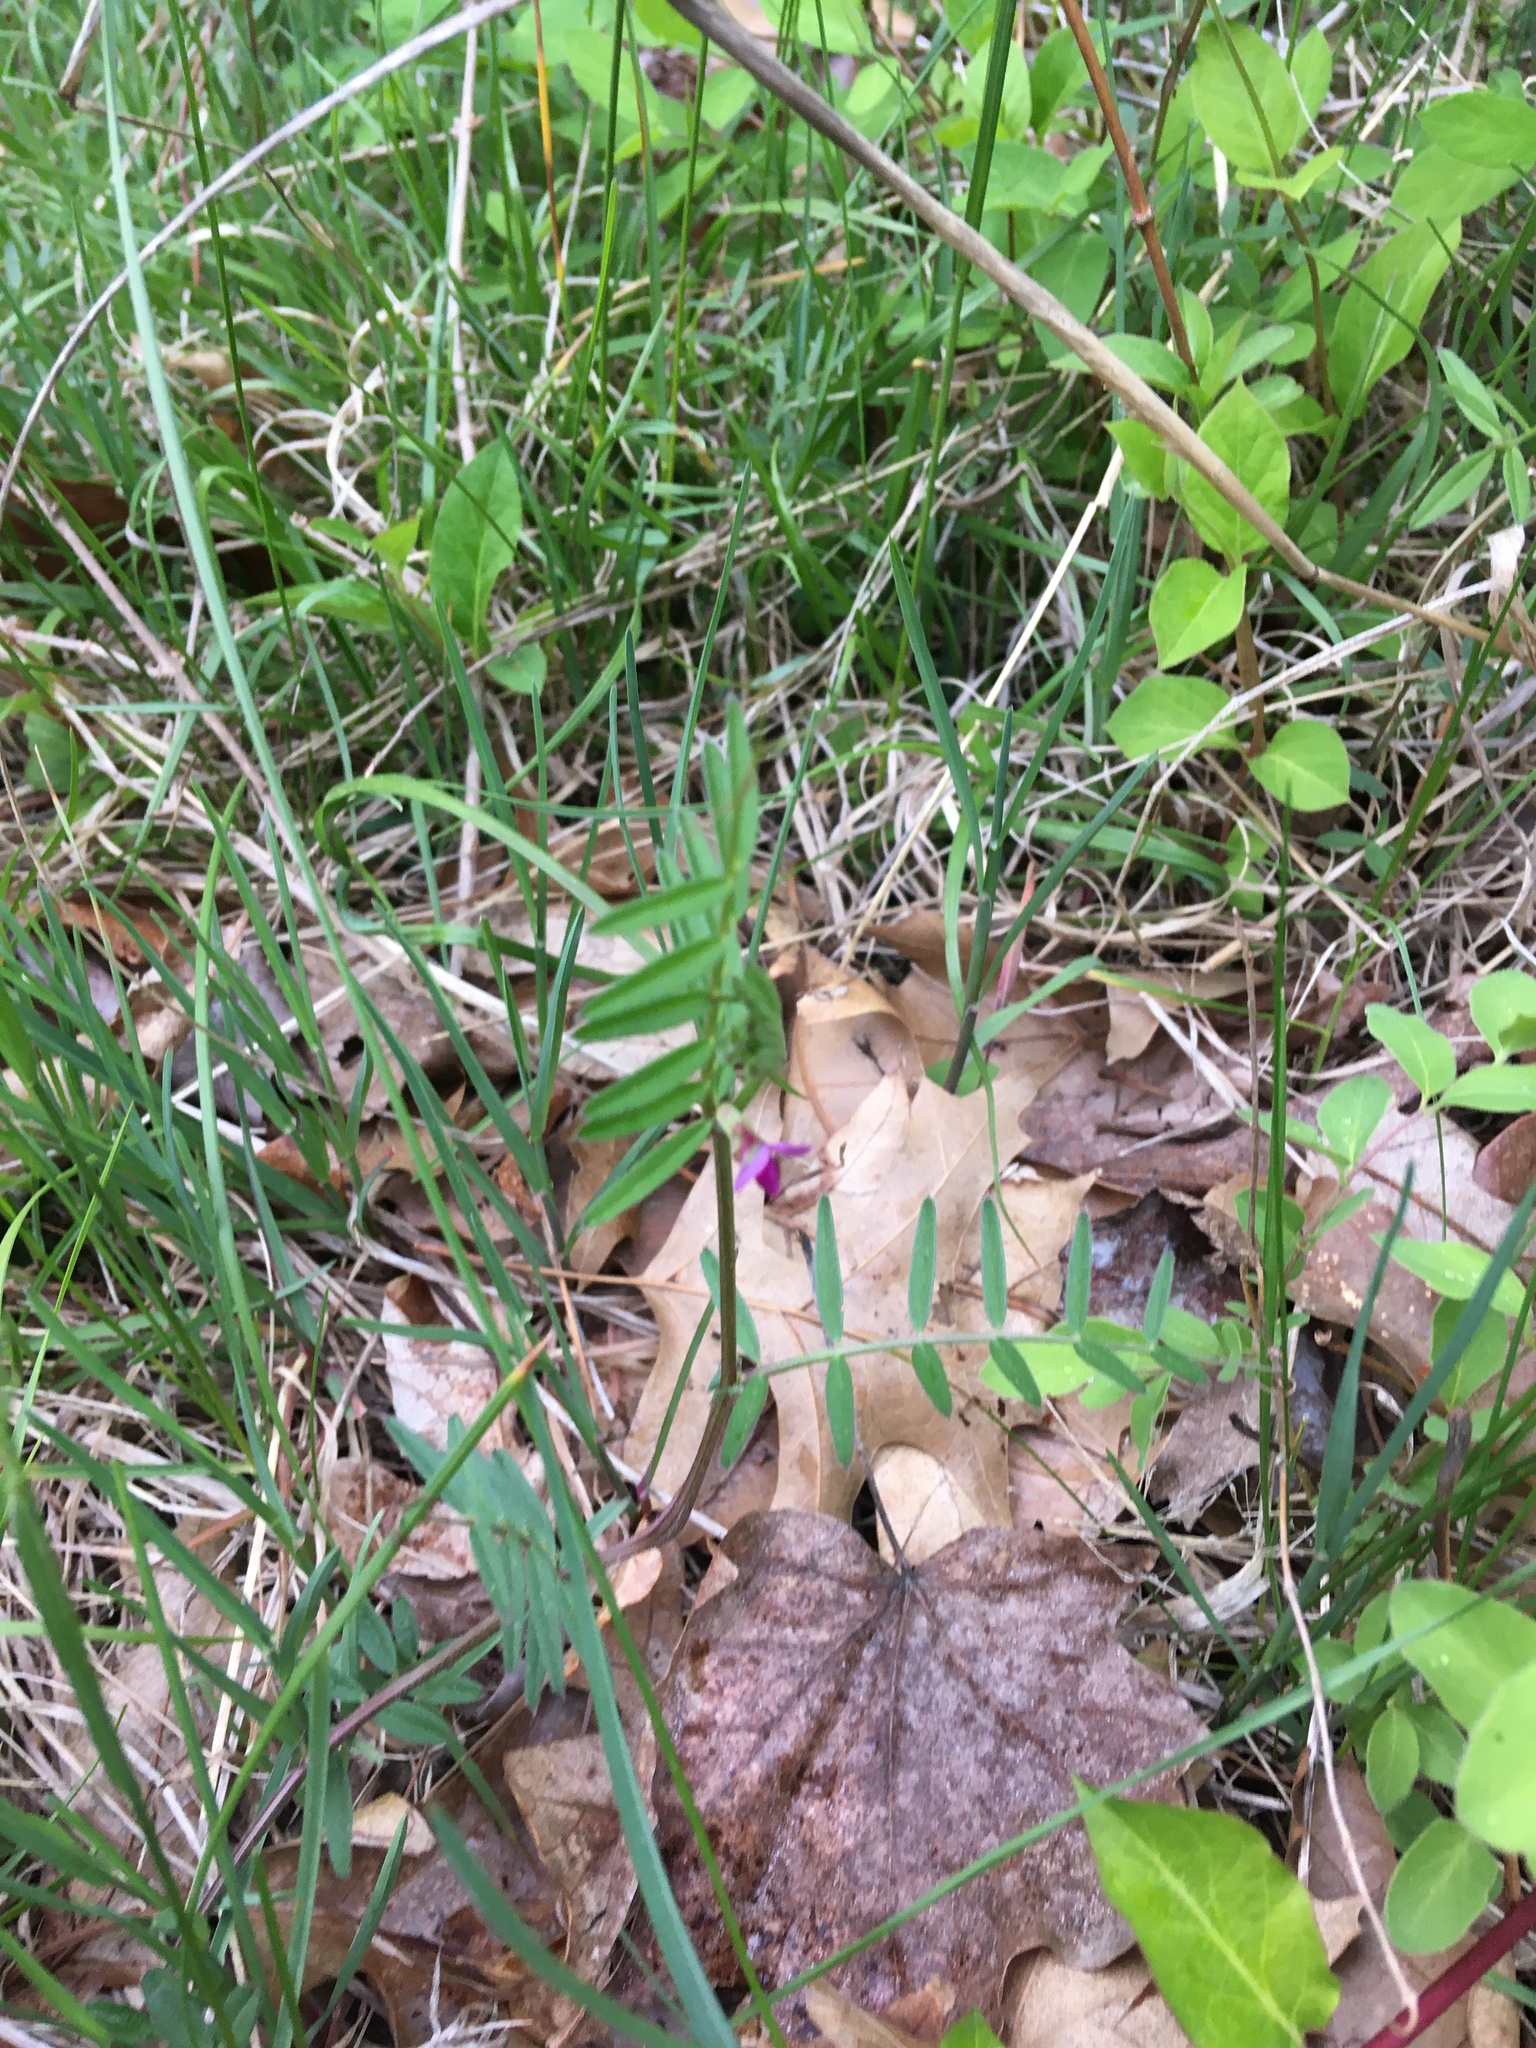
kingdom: Plantae
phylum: Tracheophyta
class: Magnoliopsida
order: Fabales
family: Fabaceae
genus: Vicia
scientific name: Vicia sativa
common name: Garden vetch
